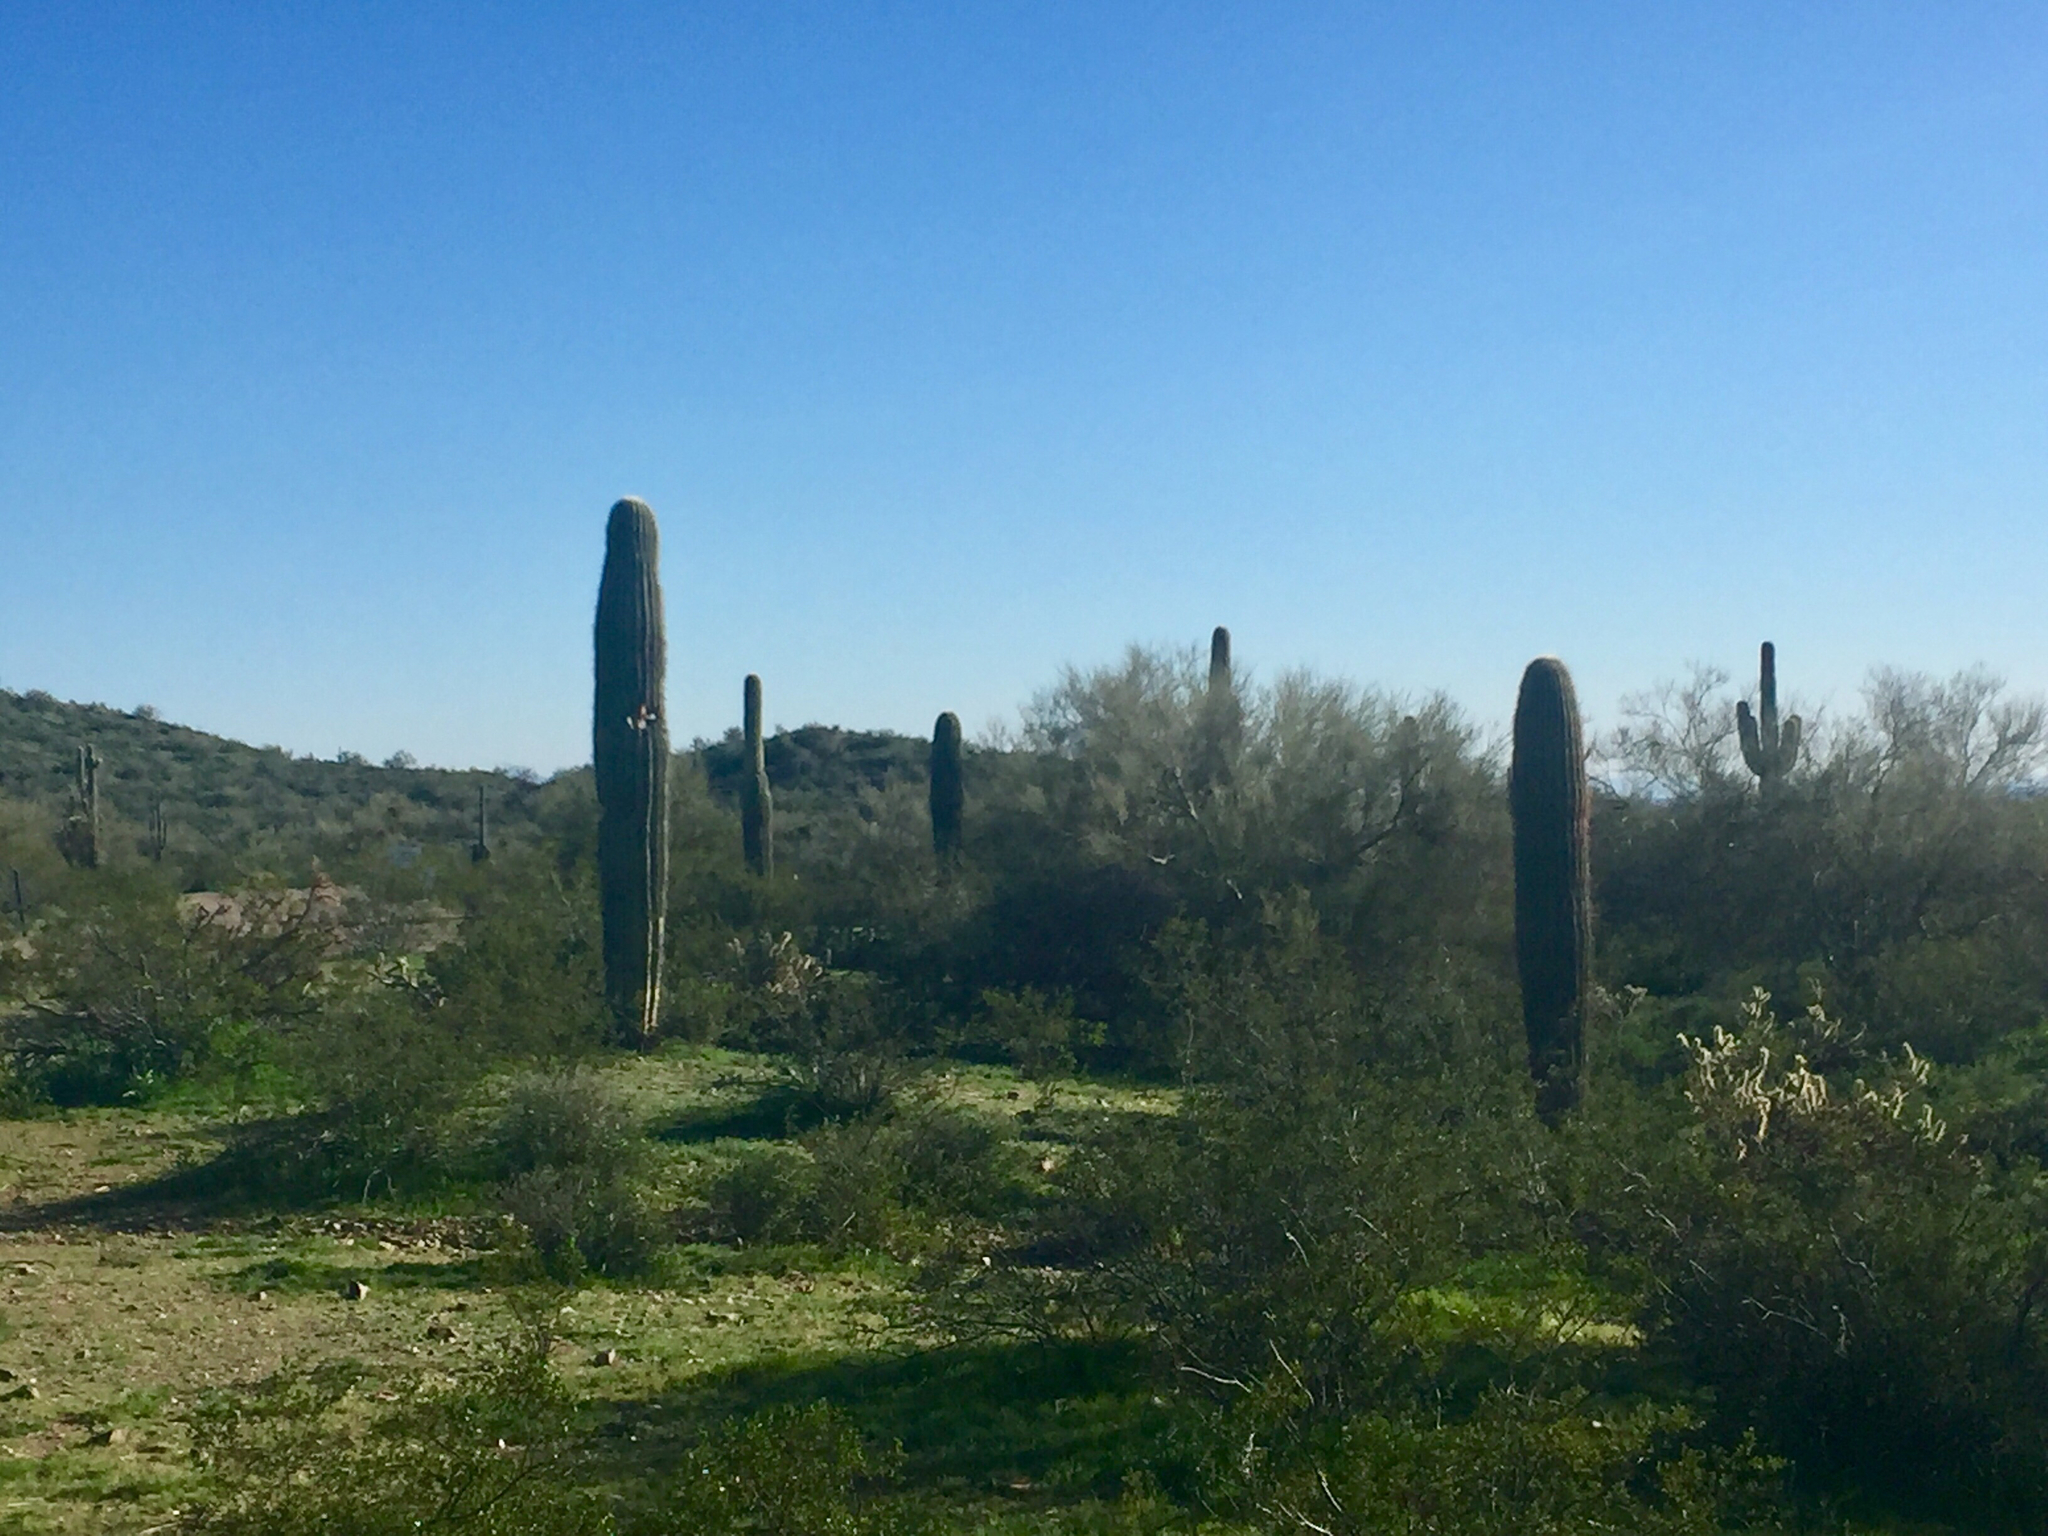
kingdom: Plantae
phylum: Tracheophyta
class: Magnoliopsida
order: Caryophyllales
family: Cactaceae
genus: Carnegiea
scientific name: Carnegiea gigantea
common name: Saguaro
